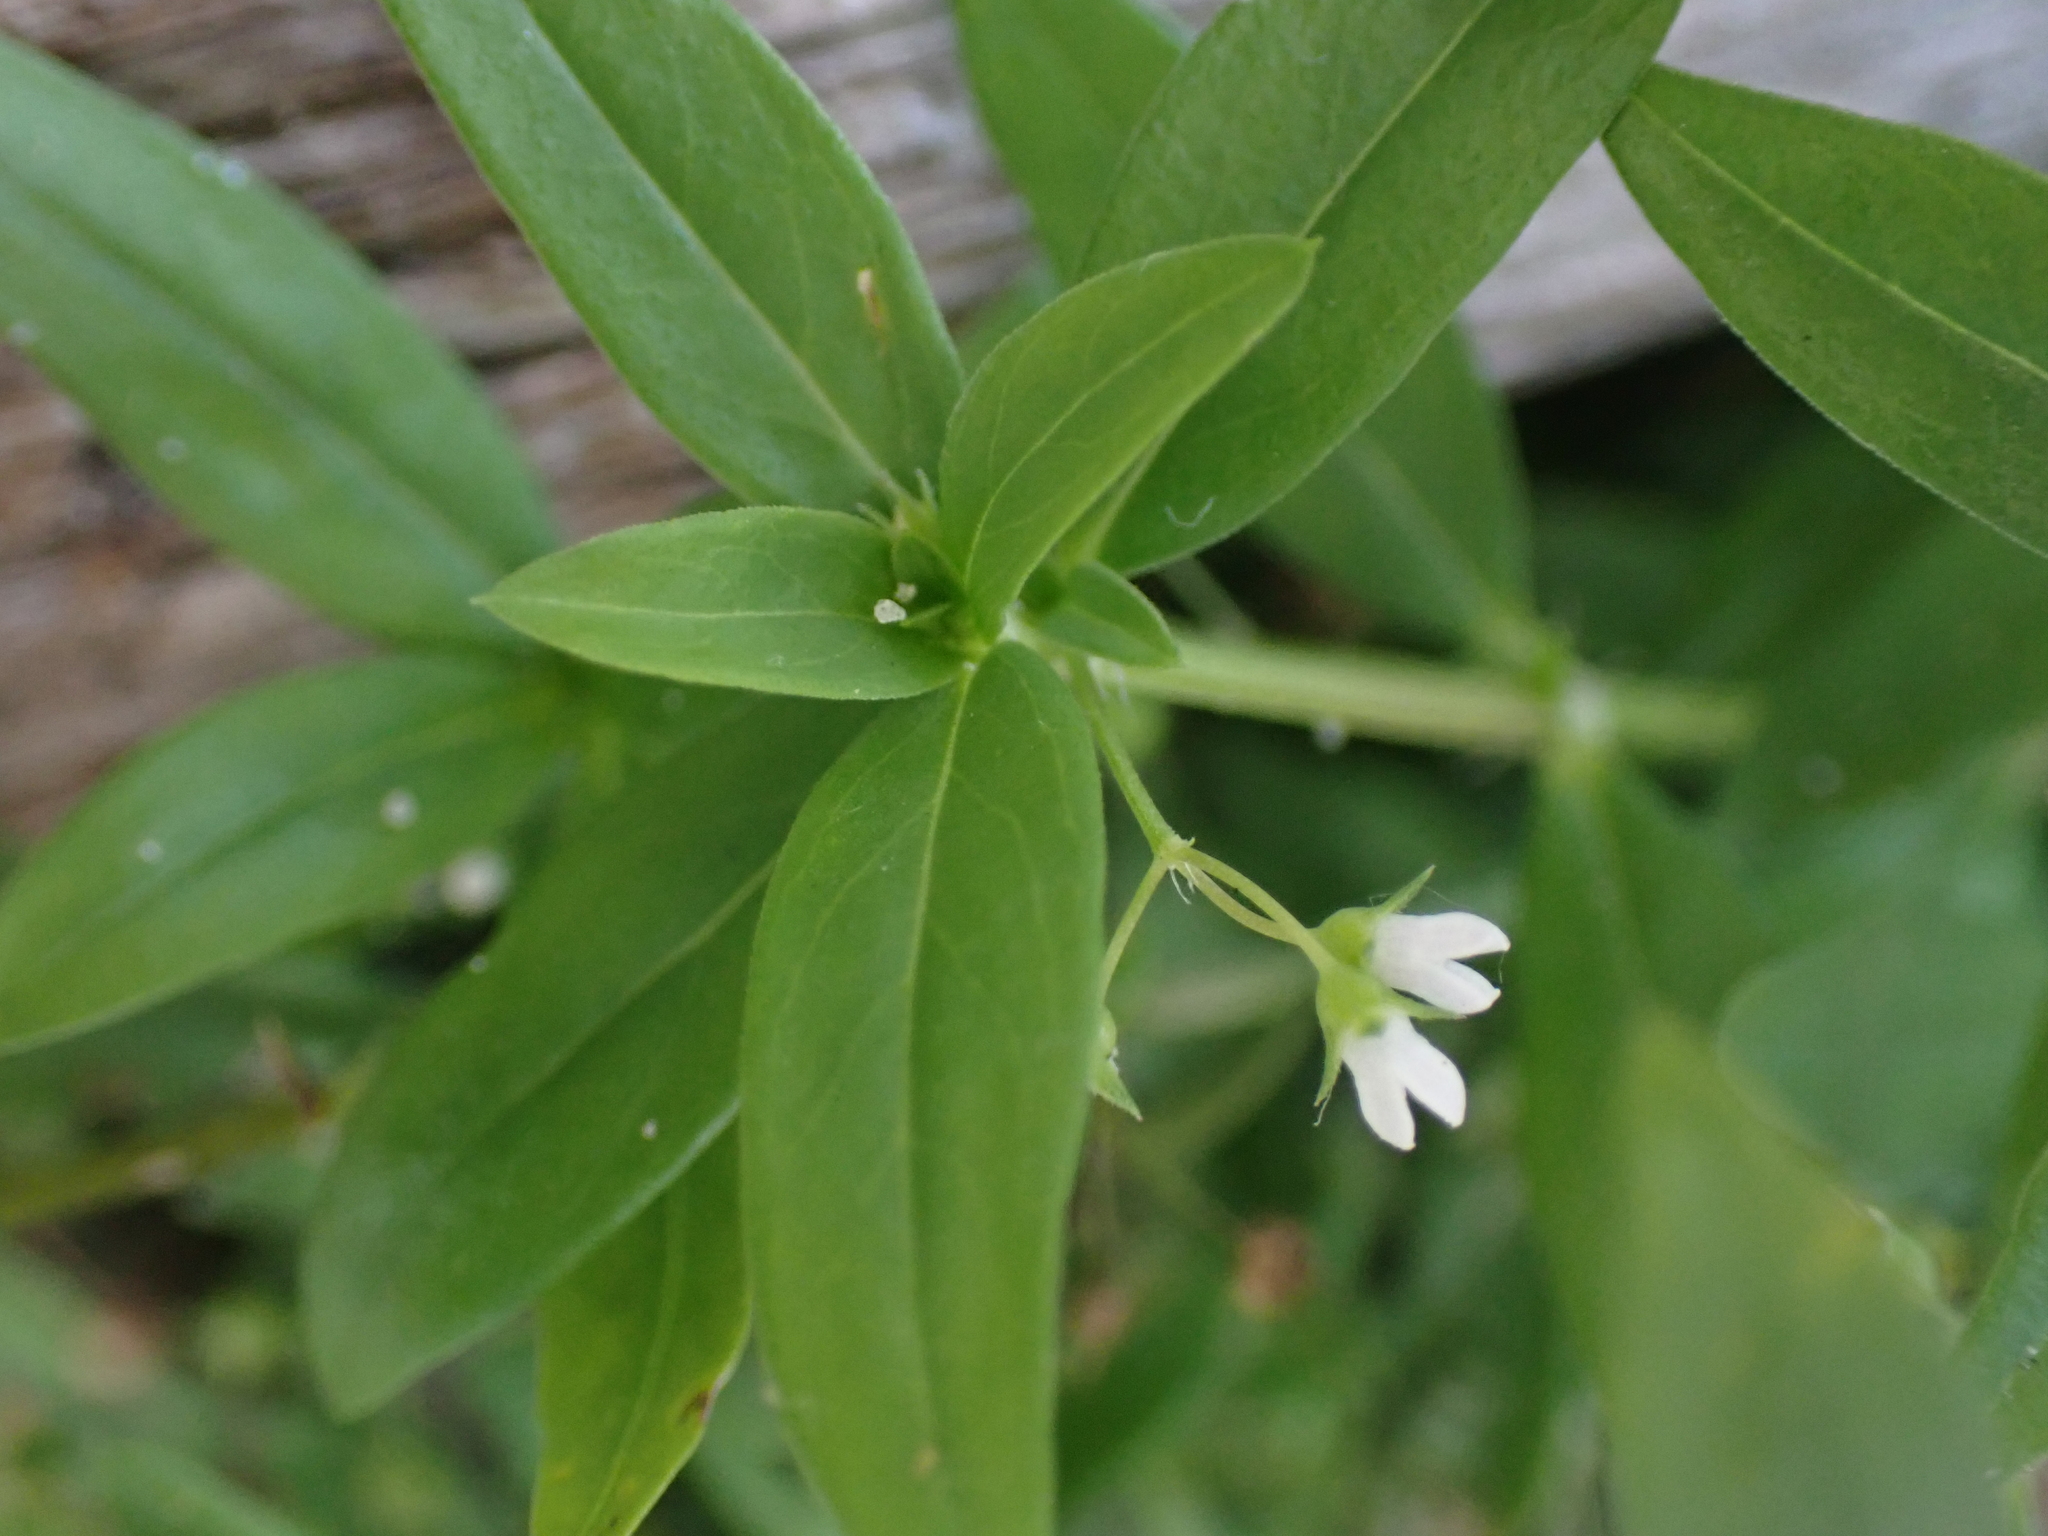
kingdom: Plantae
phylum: Tracheophyta
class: Magnoliopsida
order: Gentianales
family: Rubiaceae
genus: Oldenlandia
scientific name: Oldenlandia corymbosa
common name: Flat-top mille graines
